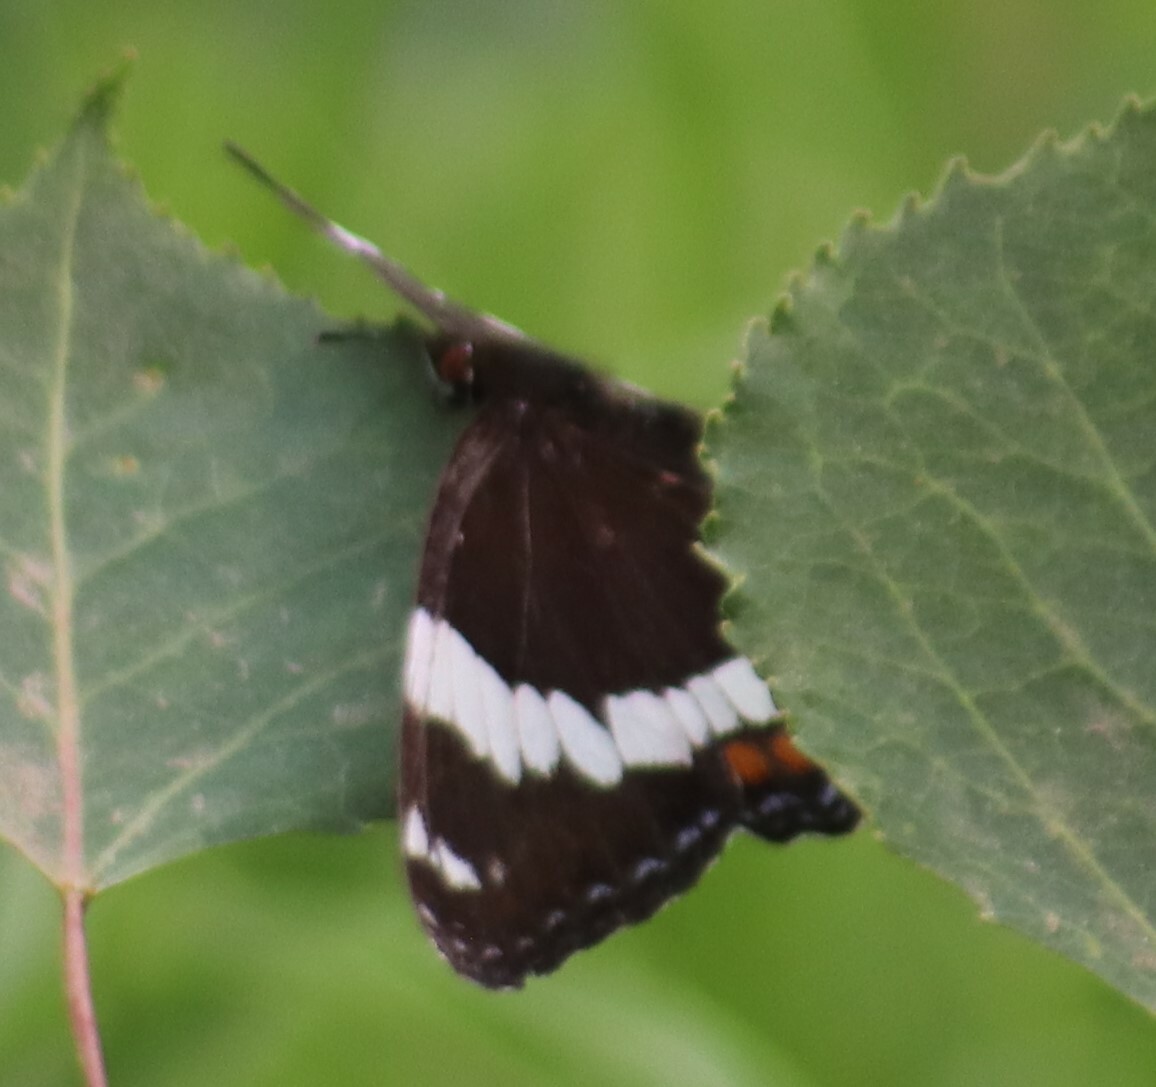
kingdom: Animalia
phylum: Arthropoda
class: Insecta
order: Lepidoptera
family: Nymphalidae
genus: Limenitis
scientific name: Limenitis arthemis
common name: Red-spotted admiral
